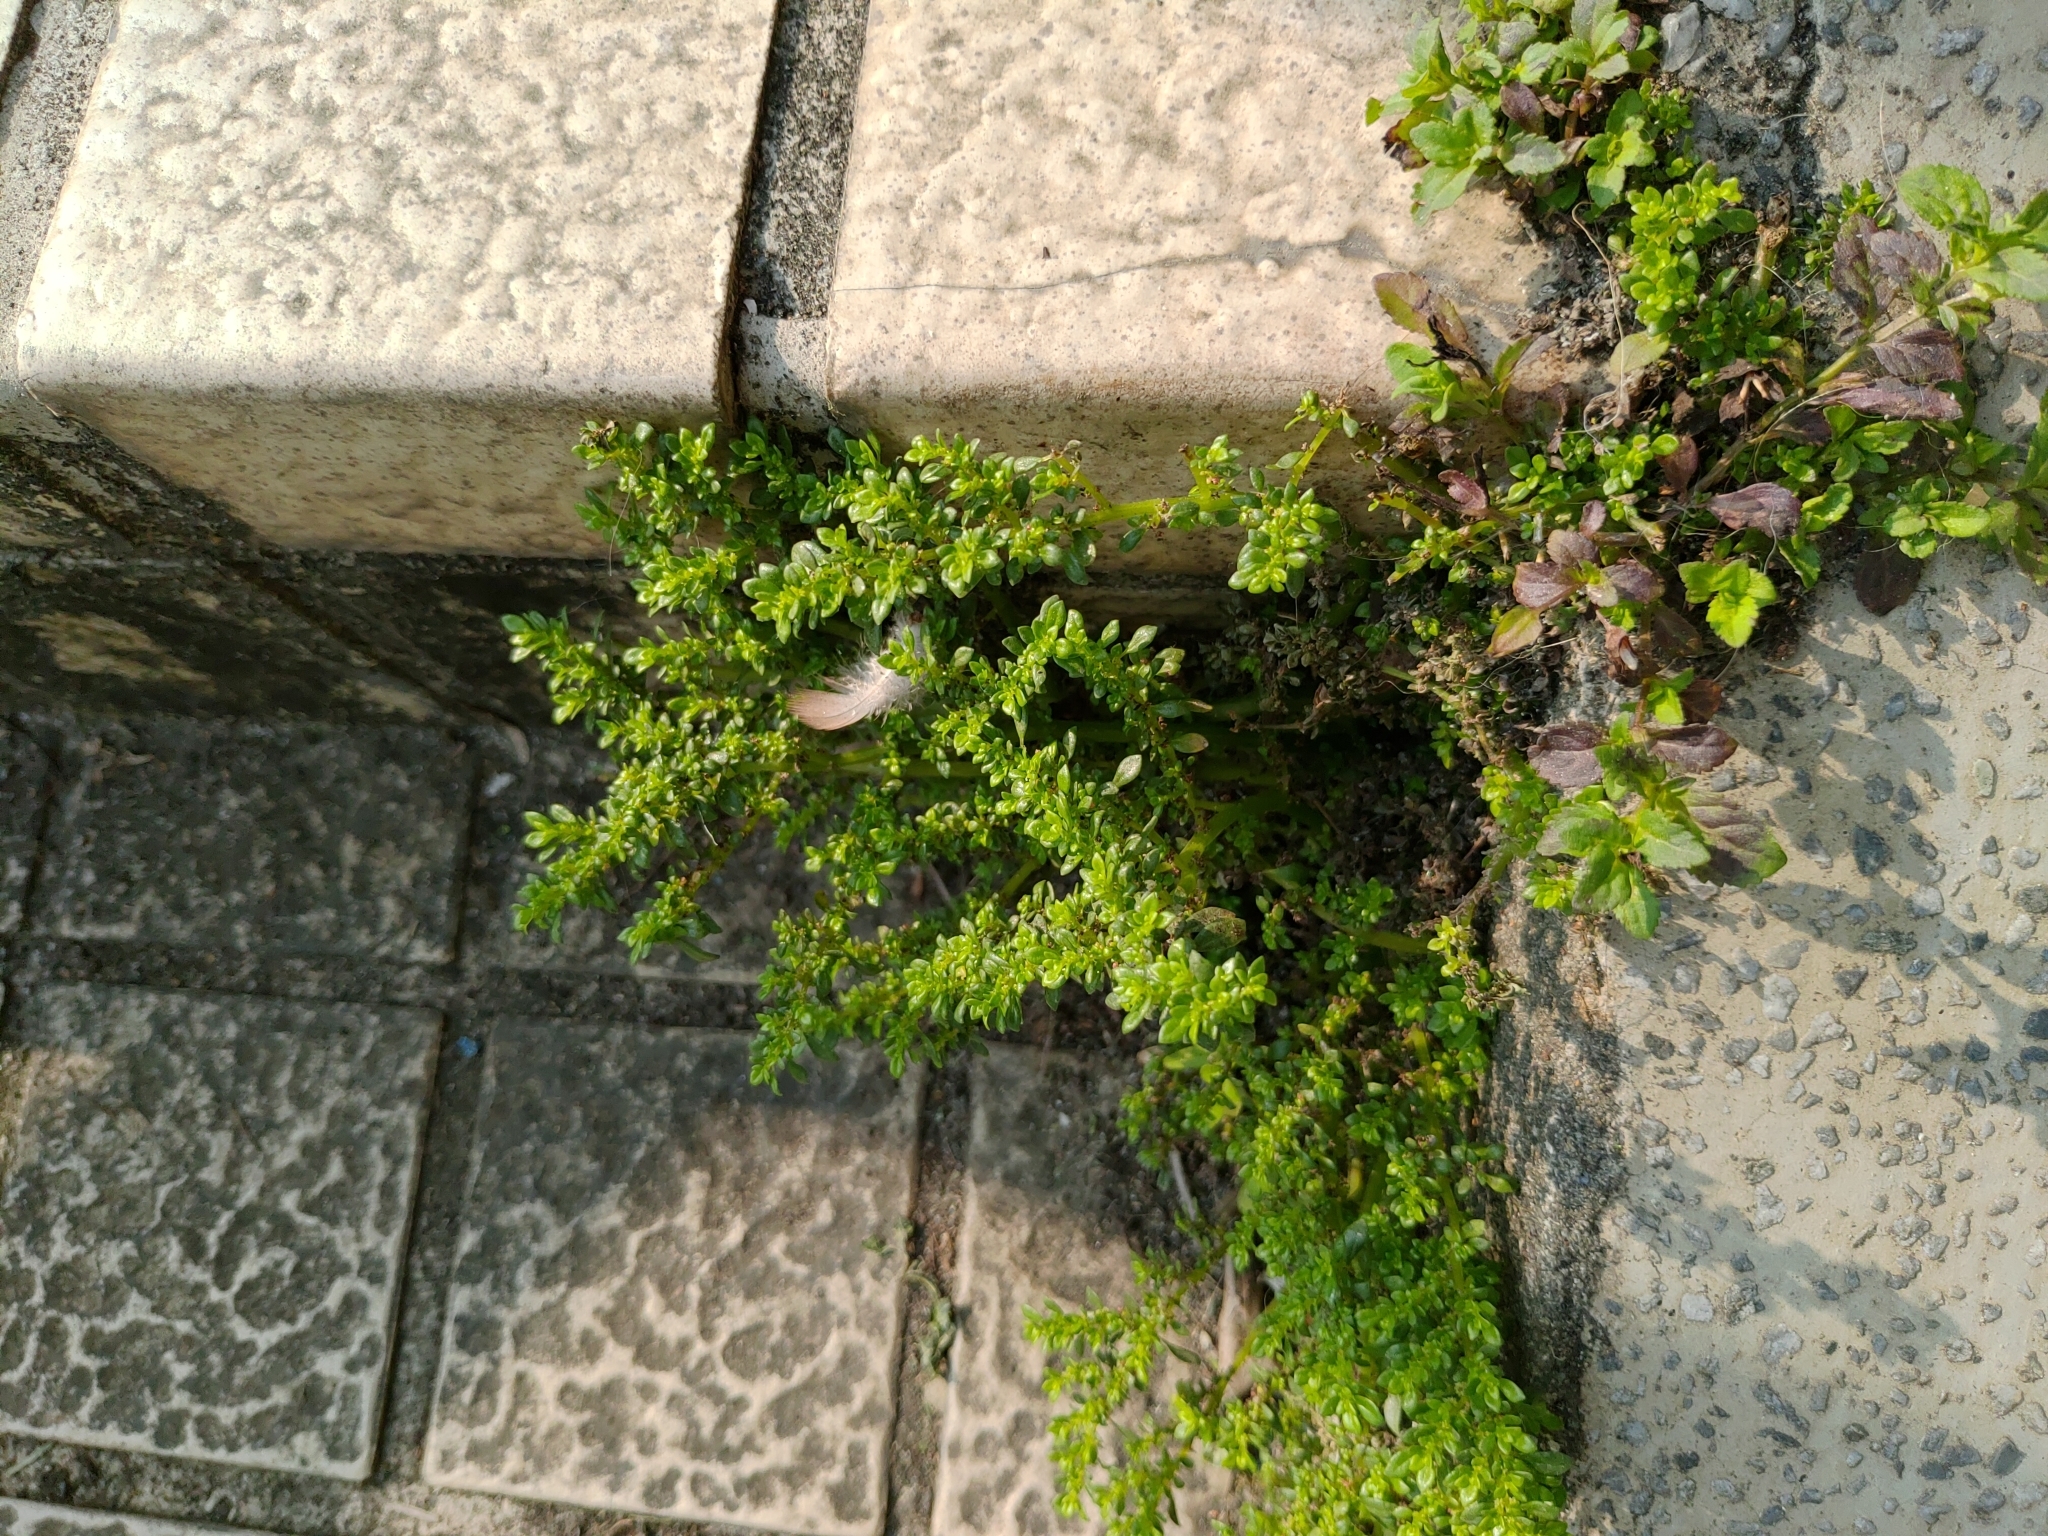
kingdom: Plantae
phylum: Tracheophyta
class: Magnoliopsida
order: Rosales
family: Urticaceae
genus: Pilea
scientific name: Pilea microphylla
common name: Artillery-plant
